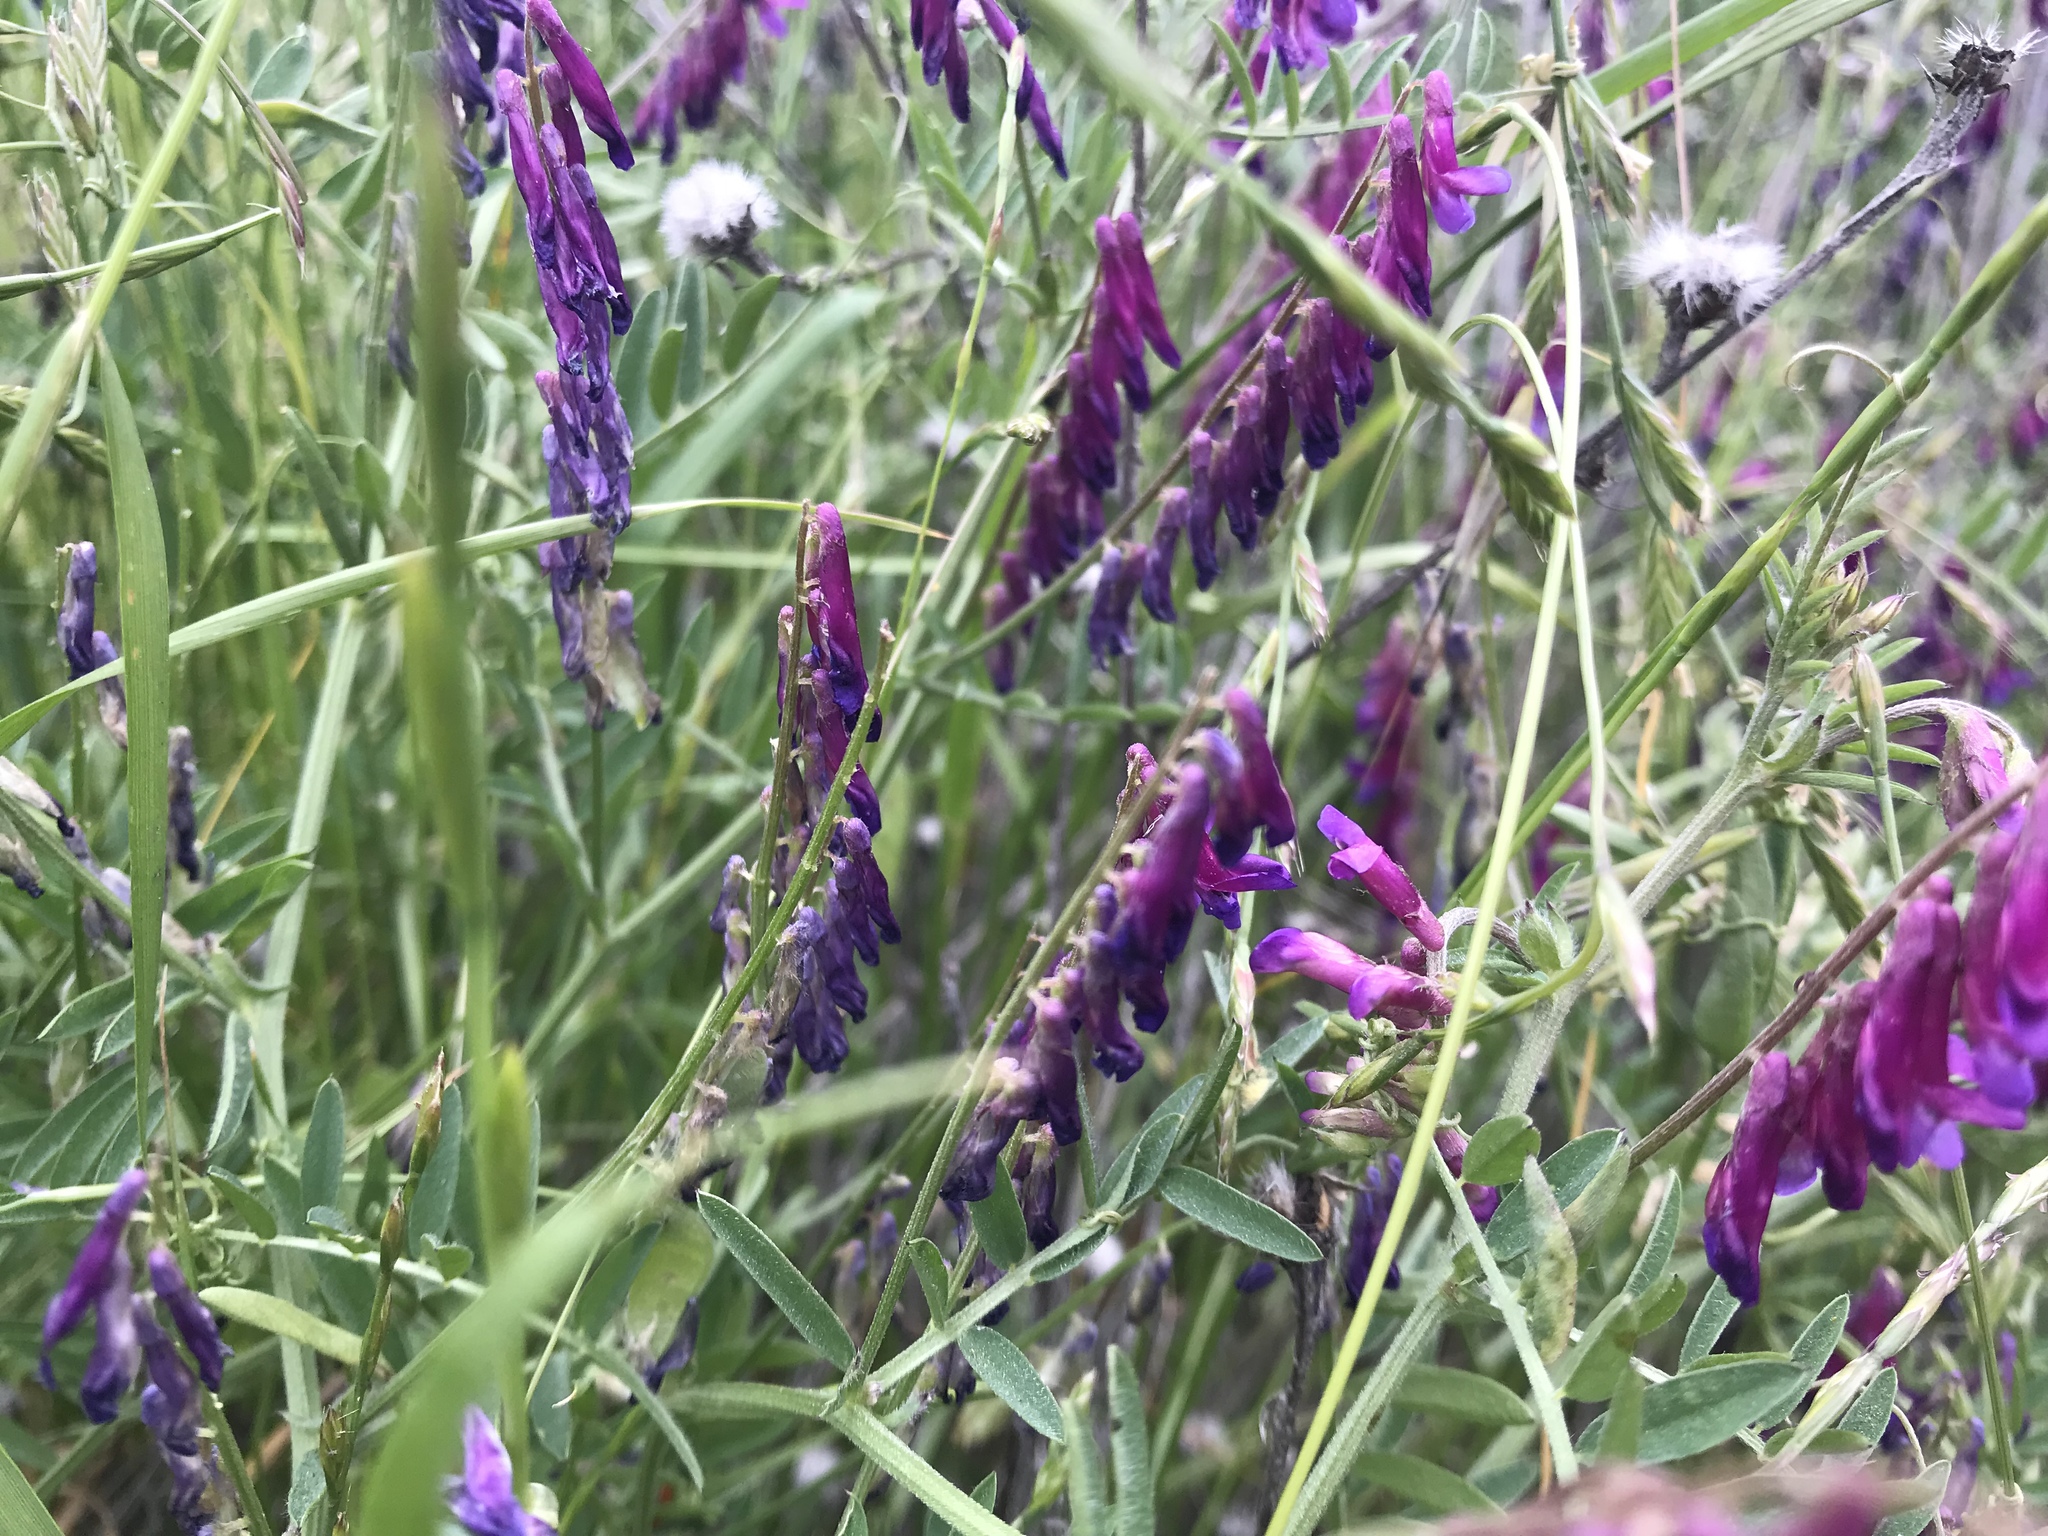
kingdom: Plantae
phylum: Tracheophyta
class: Magnoliopsida
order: Fabales
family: Fabaceae
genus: Vicia
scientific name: Vicia villosa
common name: Fodder vetch
